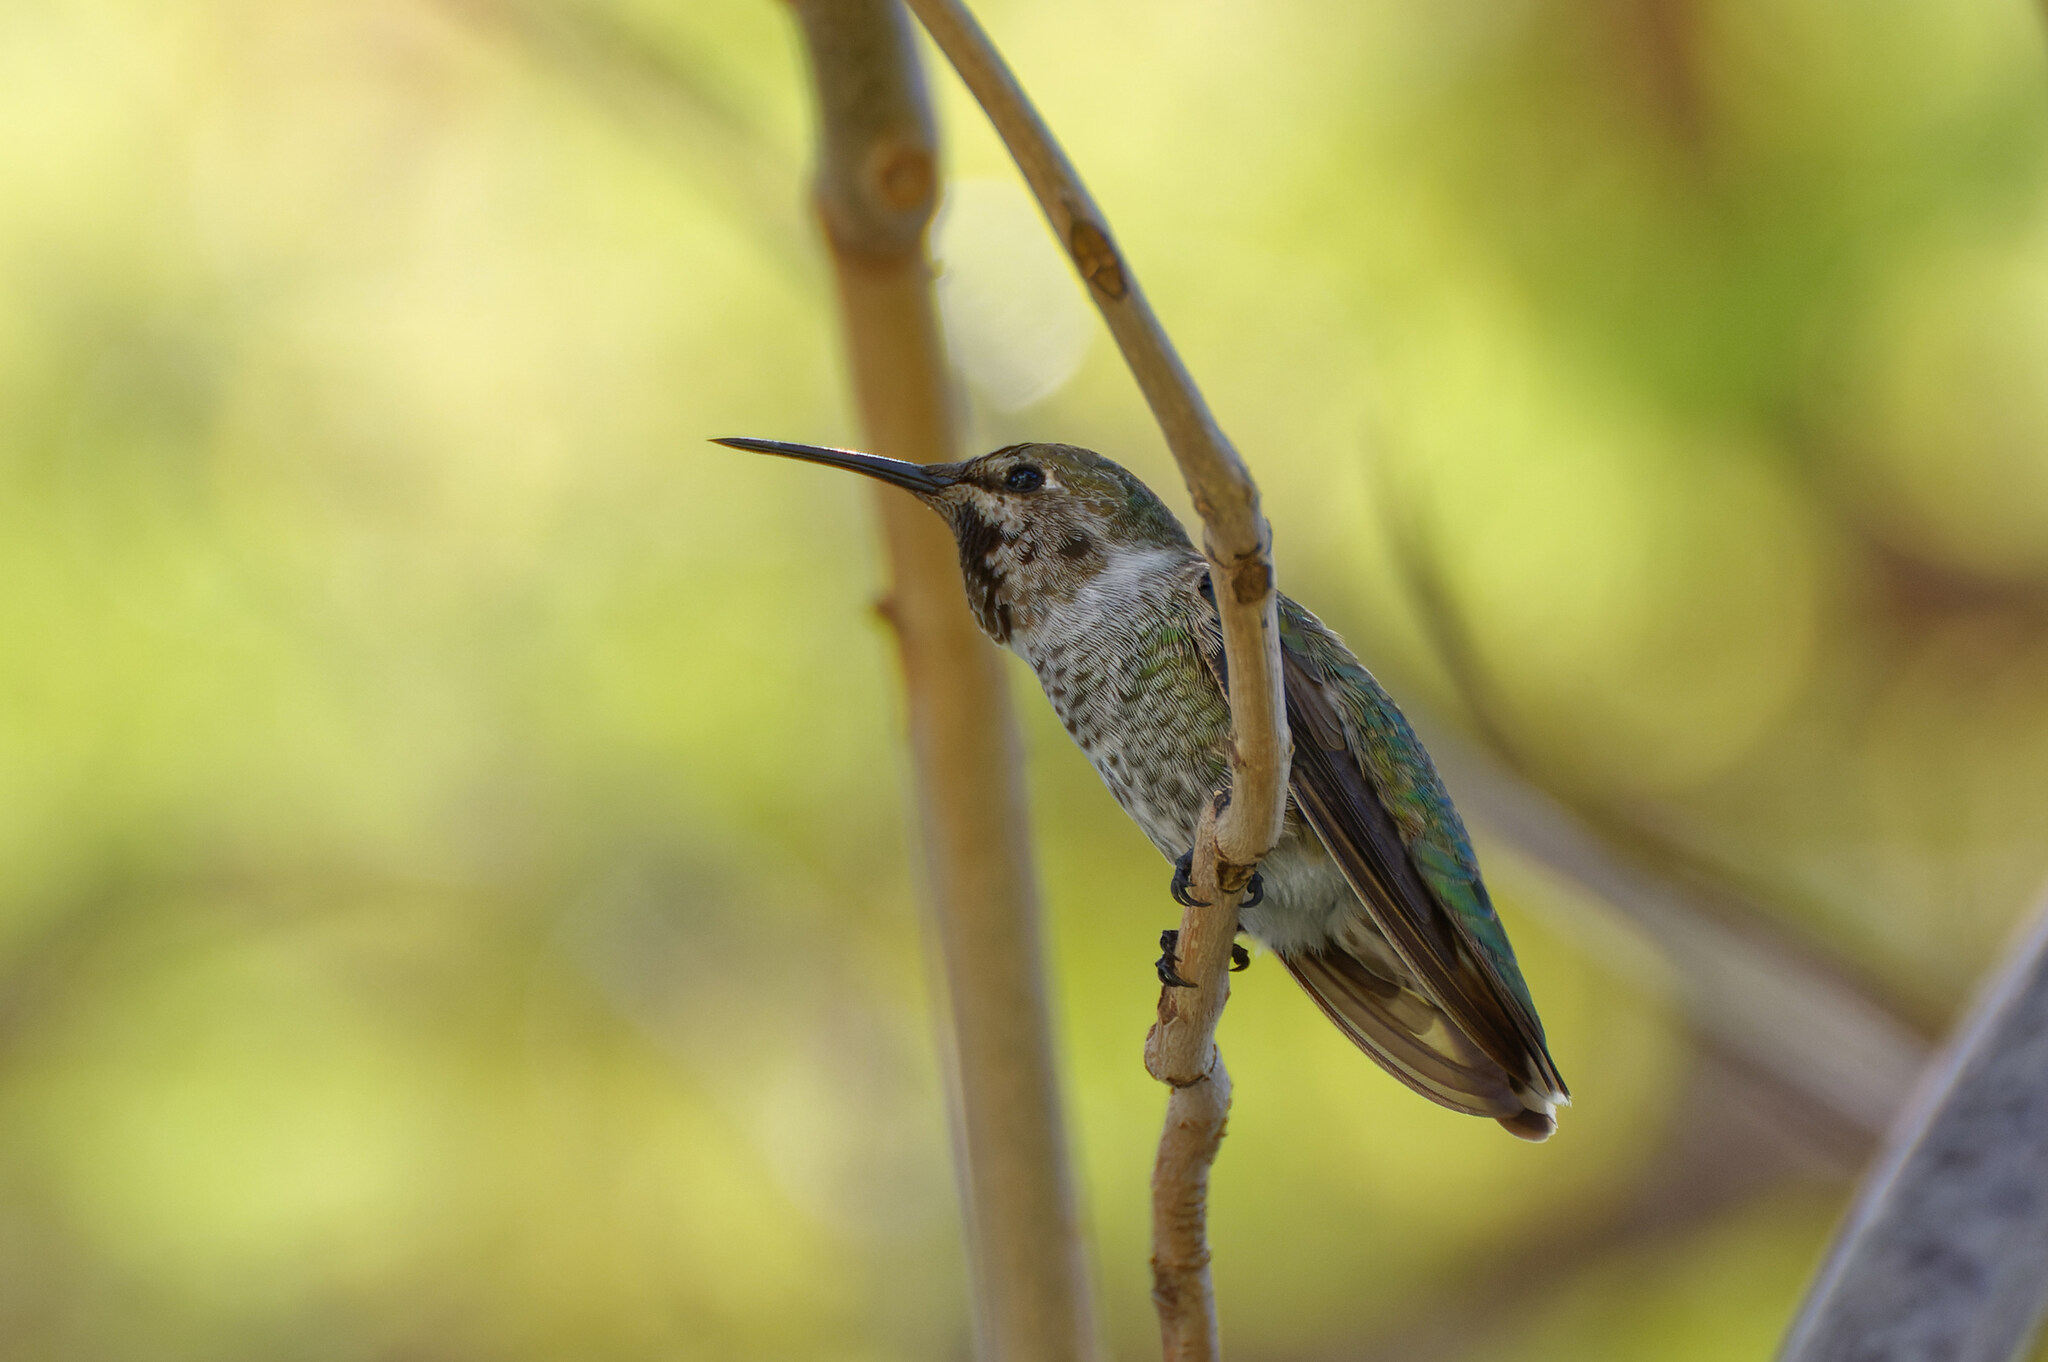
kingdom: Animalia
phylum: Chordata
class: Aves
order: Apodiformes
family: Trochilidae
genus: Calypte
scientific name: Calypte anna
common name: Anna's hummingbird
